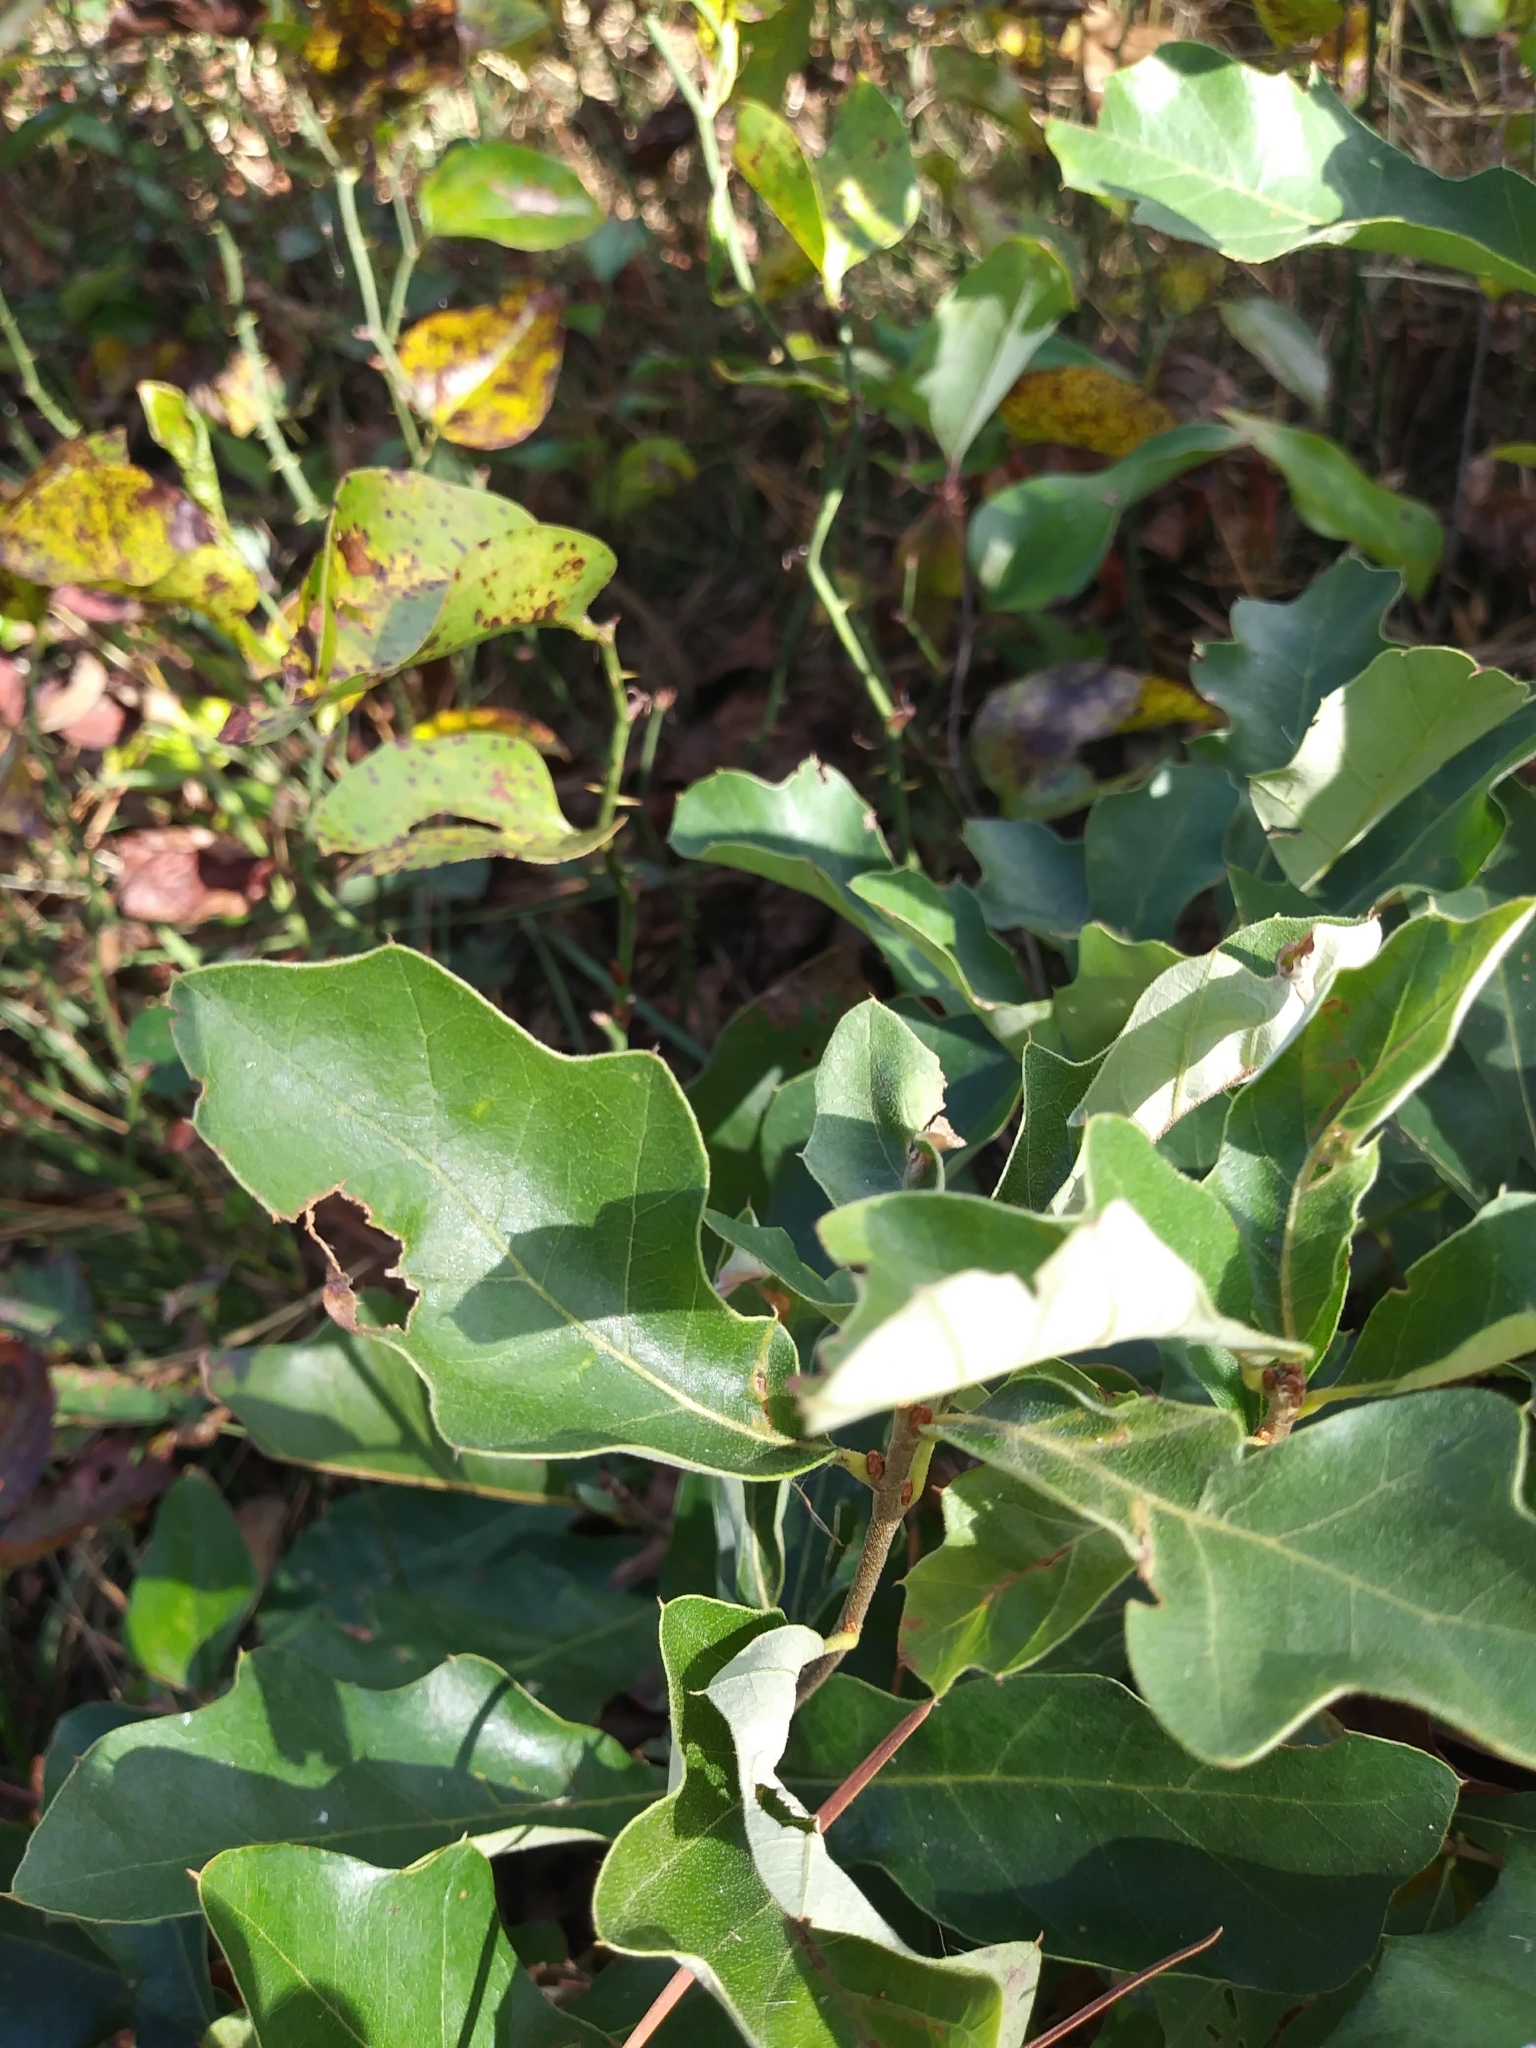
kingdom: Plantae
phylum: Tracheophyta
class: Magnoliopsida
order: Fagales
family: Fagaceae
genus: Quercus
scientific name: Quercus ilicifolia
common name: Bear oak
